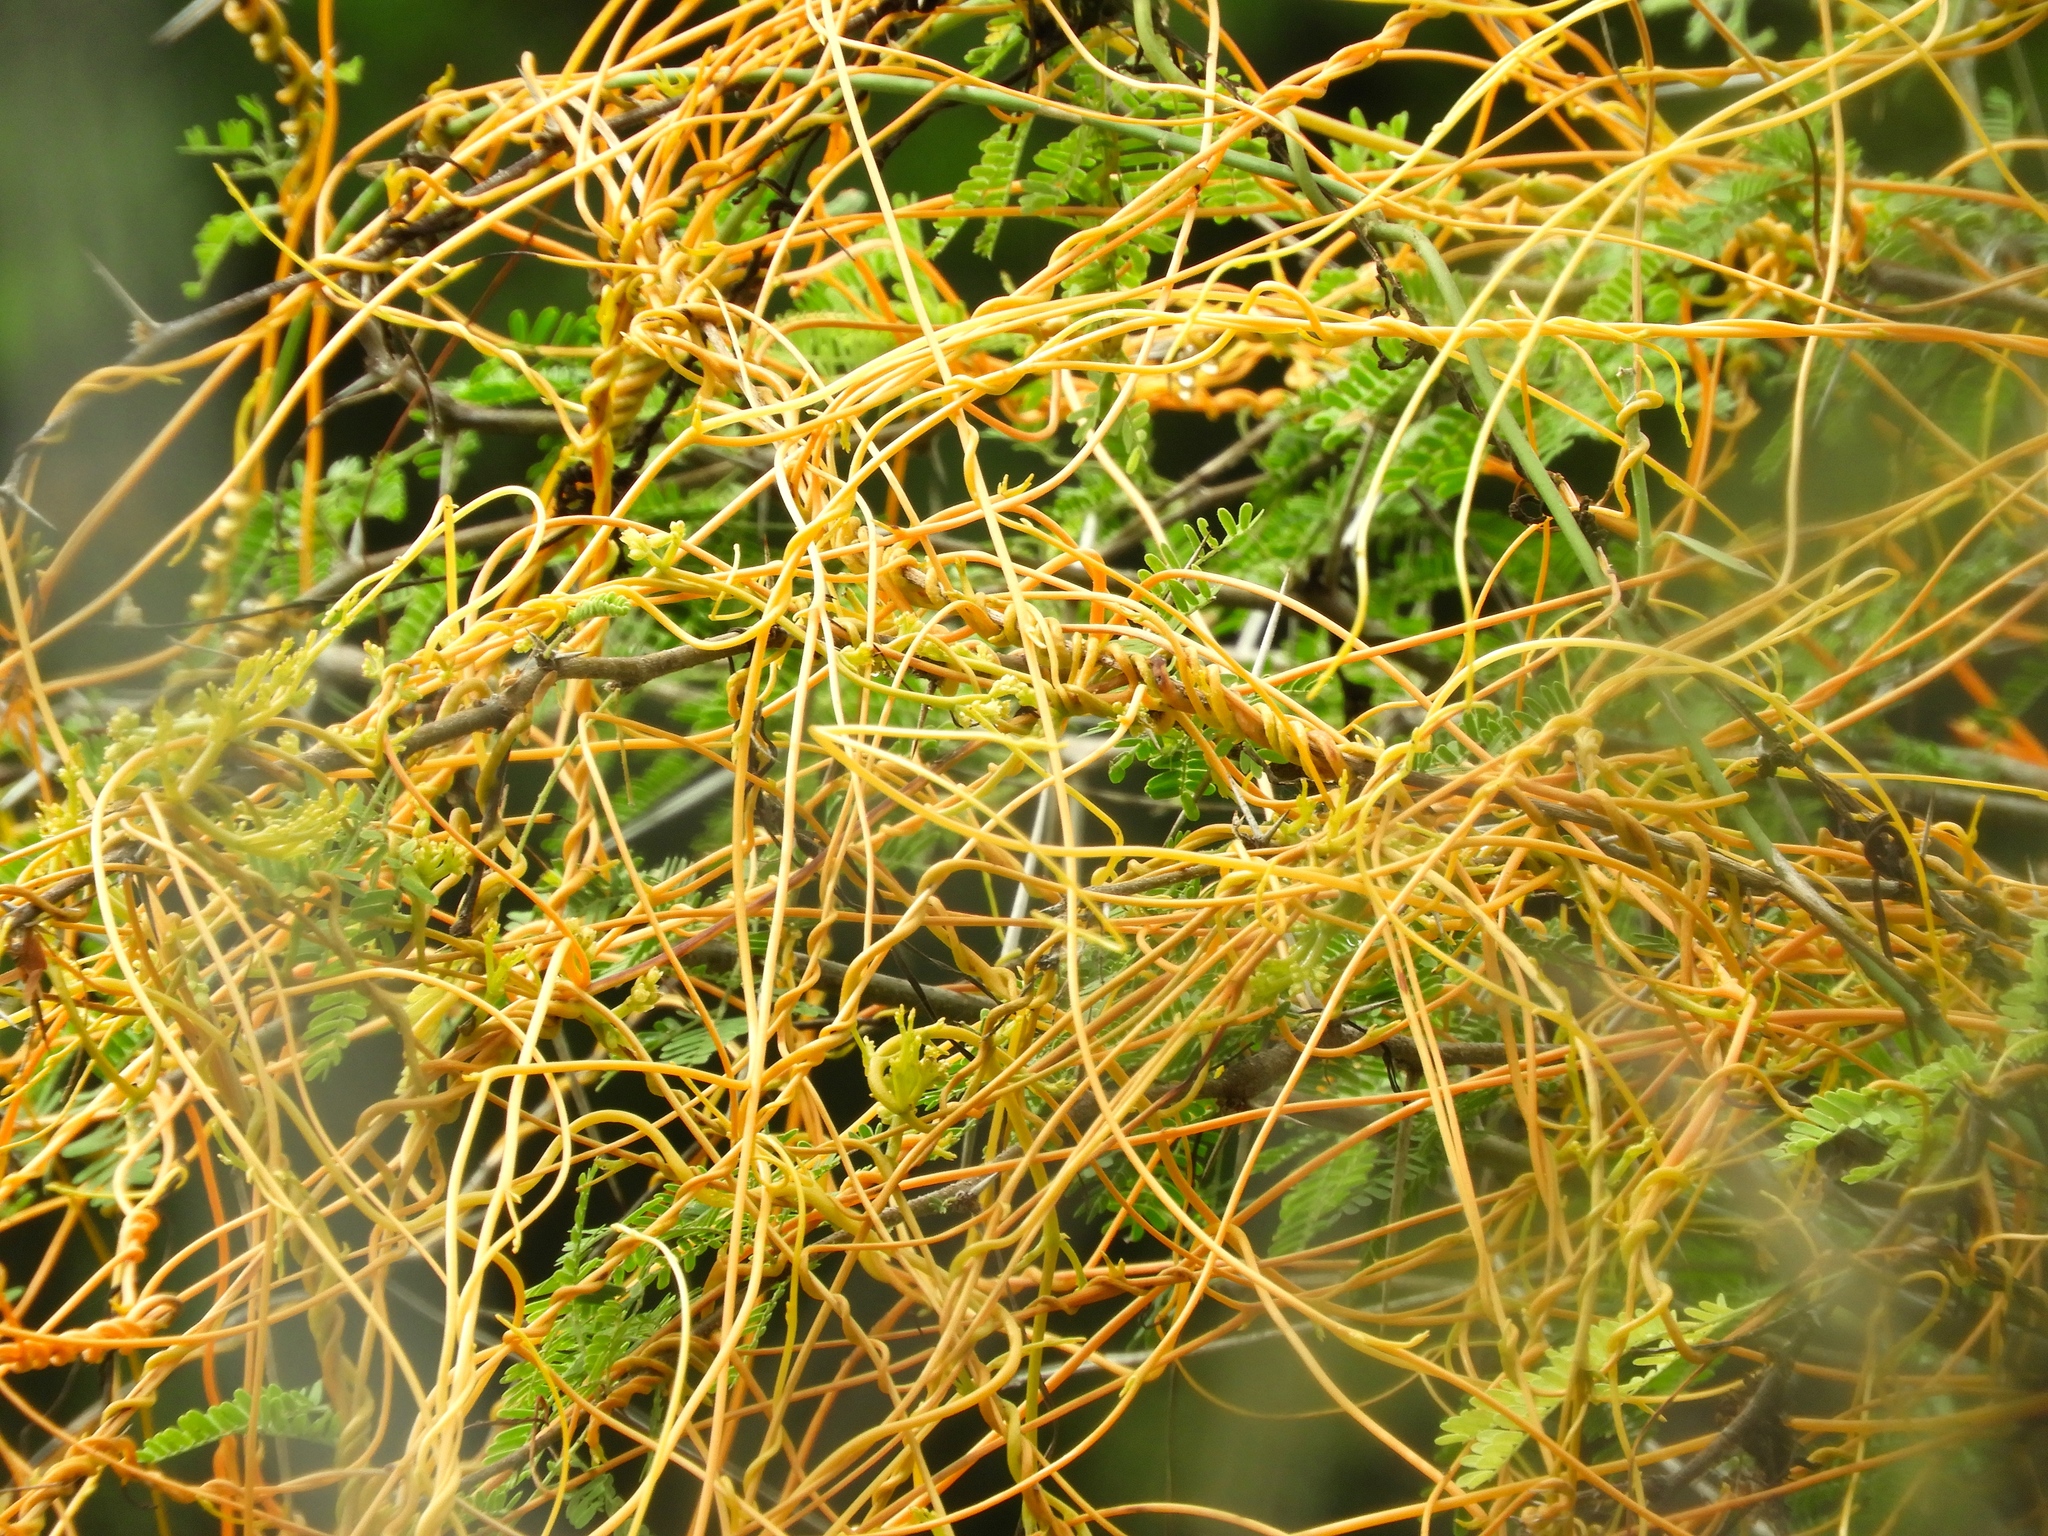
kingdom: Plantae
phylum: Tracheophyta
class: Magnoliopsida
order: Solanales
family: Convolvulaceae
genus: Cuscuta
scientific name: Cuscuta
